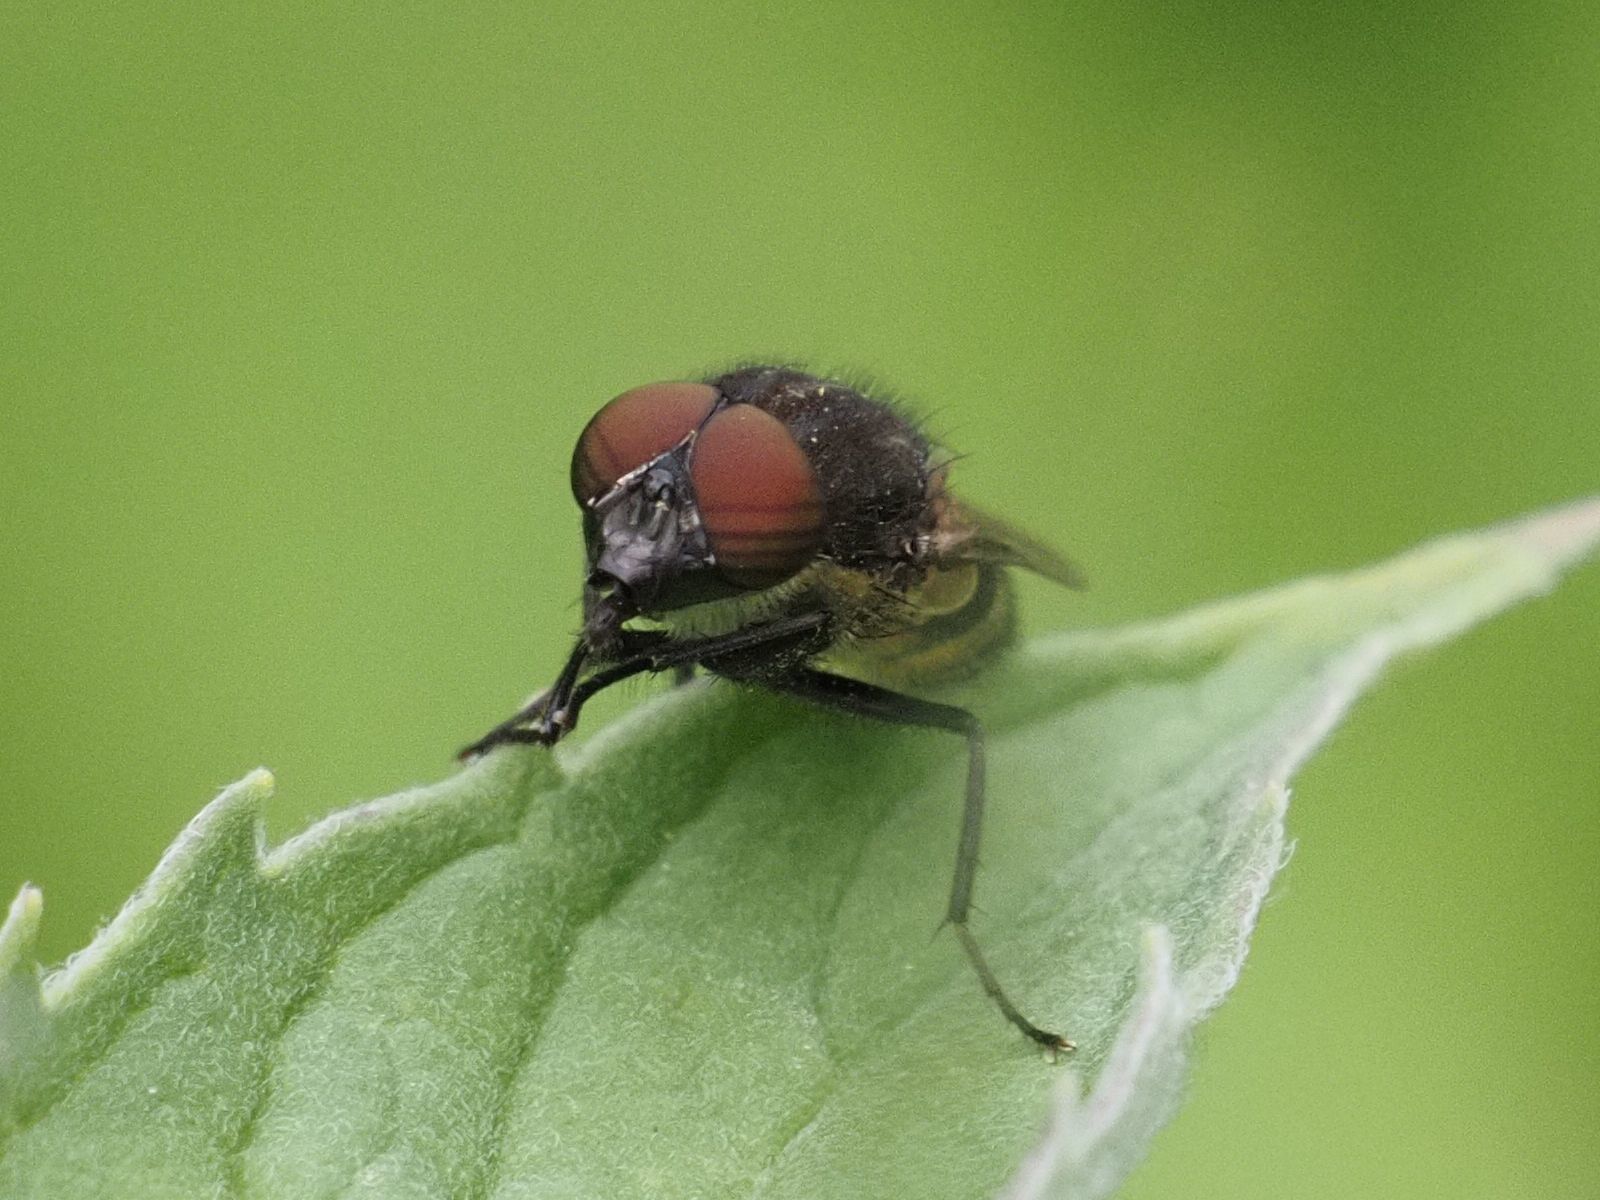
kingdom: Animalia
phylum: Arthropoda
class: Insecta
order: Diptera
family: Calliphoridae
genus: Stomorhina
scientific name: Stomorhina lunata
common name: Locust blowfly
